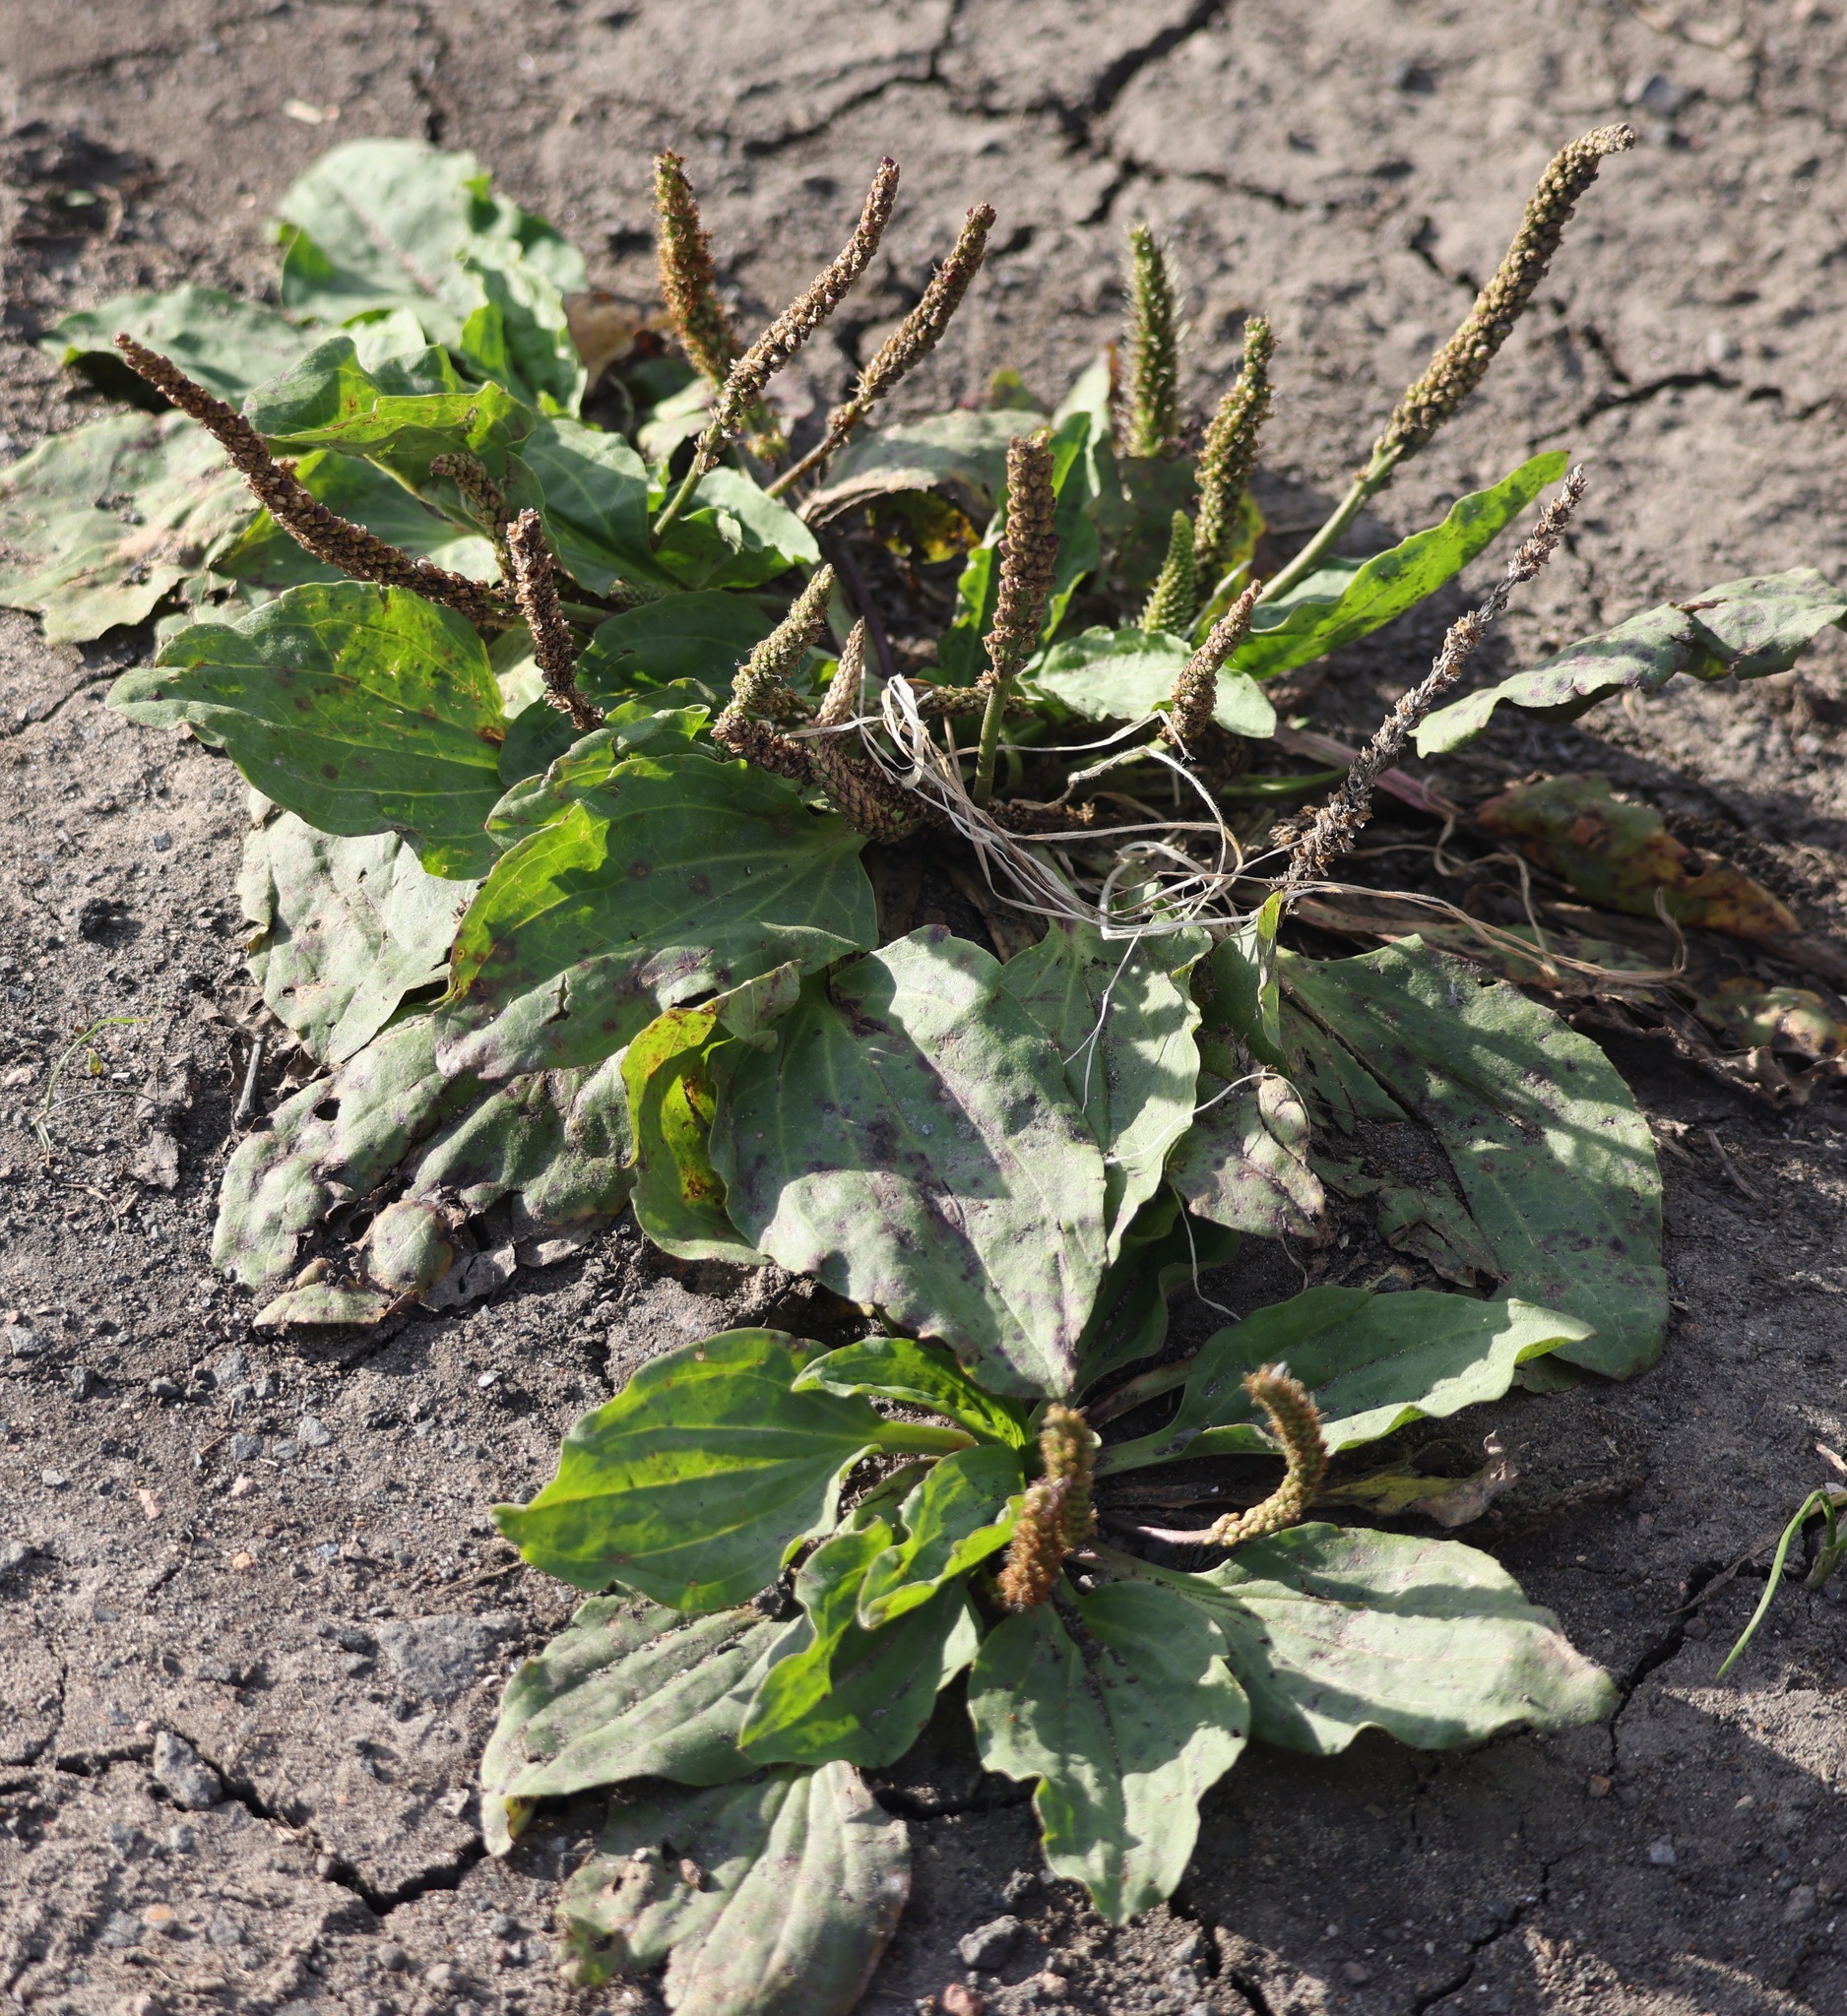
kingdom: Plantae
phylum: Tracheophyta
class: Magnoliopsida
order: Lamiales
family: Plantaginaceae
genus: Plantago
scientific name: Plantago major
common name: Common plantain
